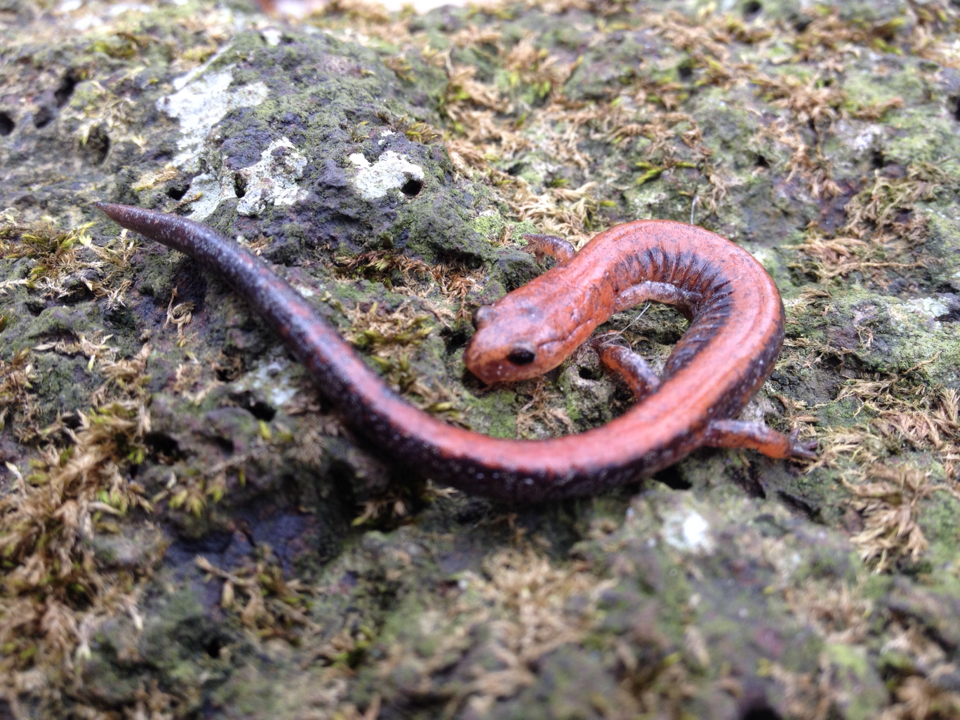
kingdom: Animalia
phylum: Chordata
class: Amphibia
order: Caudata
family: Plethodontidae
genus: Plethodon
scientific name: Plethodon cinereus
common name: Redback salamander
